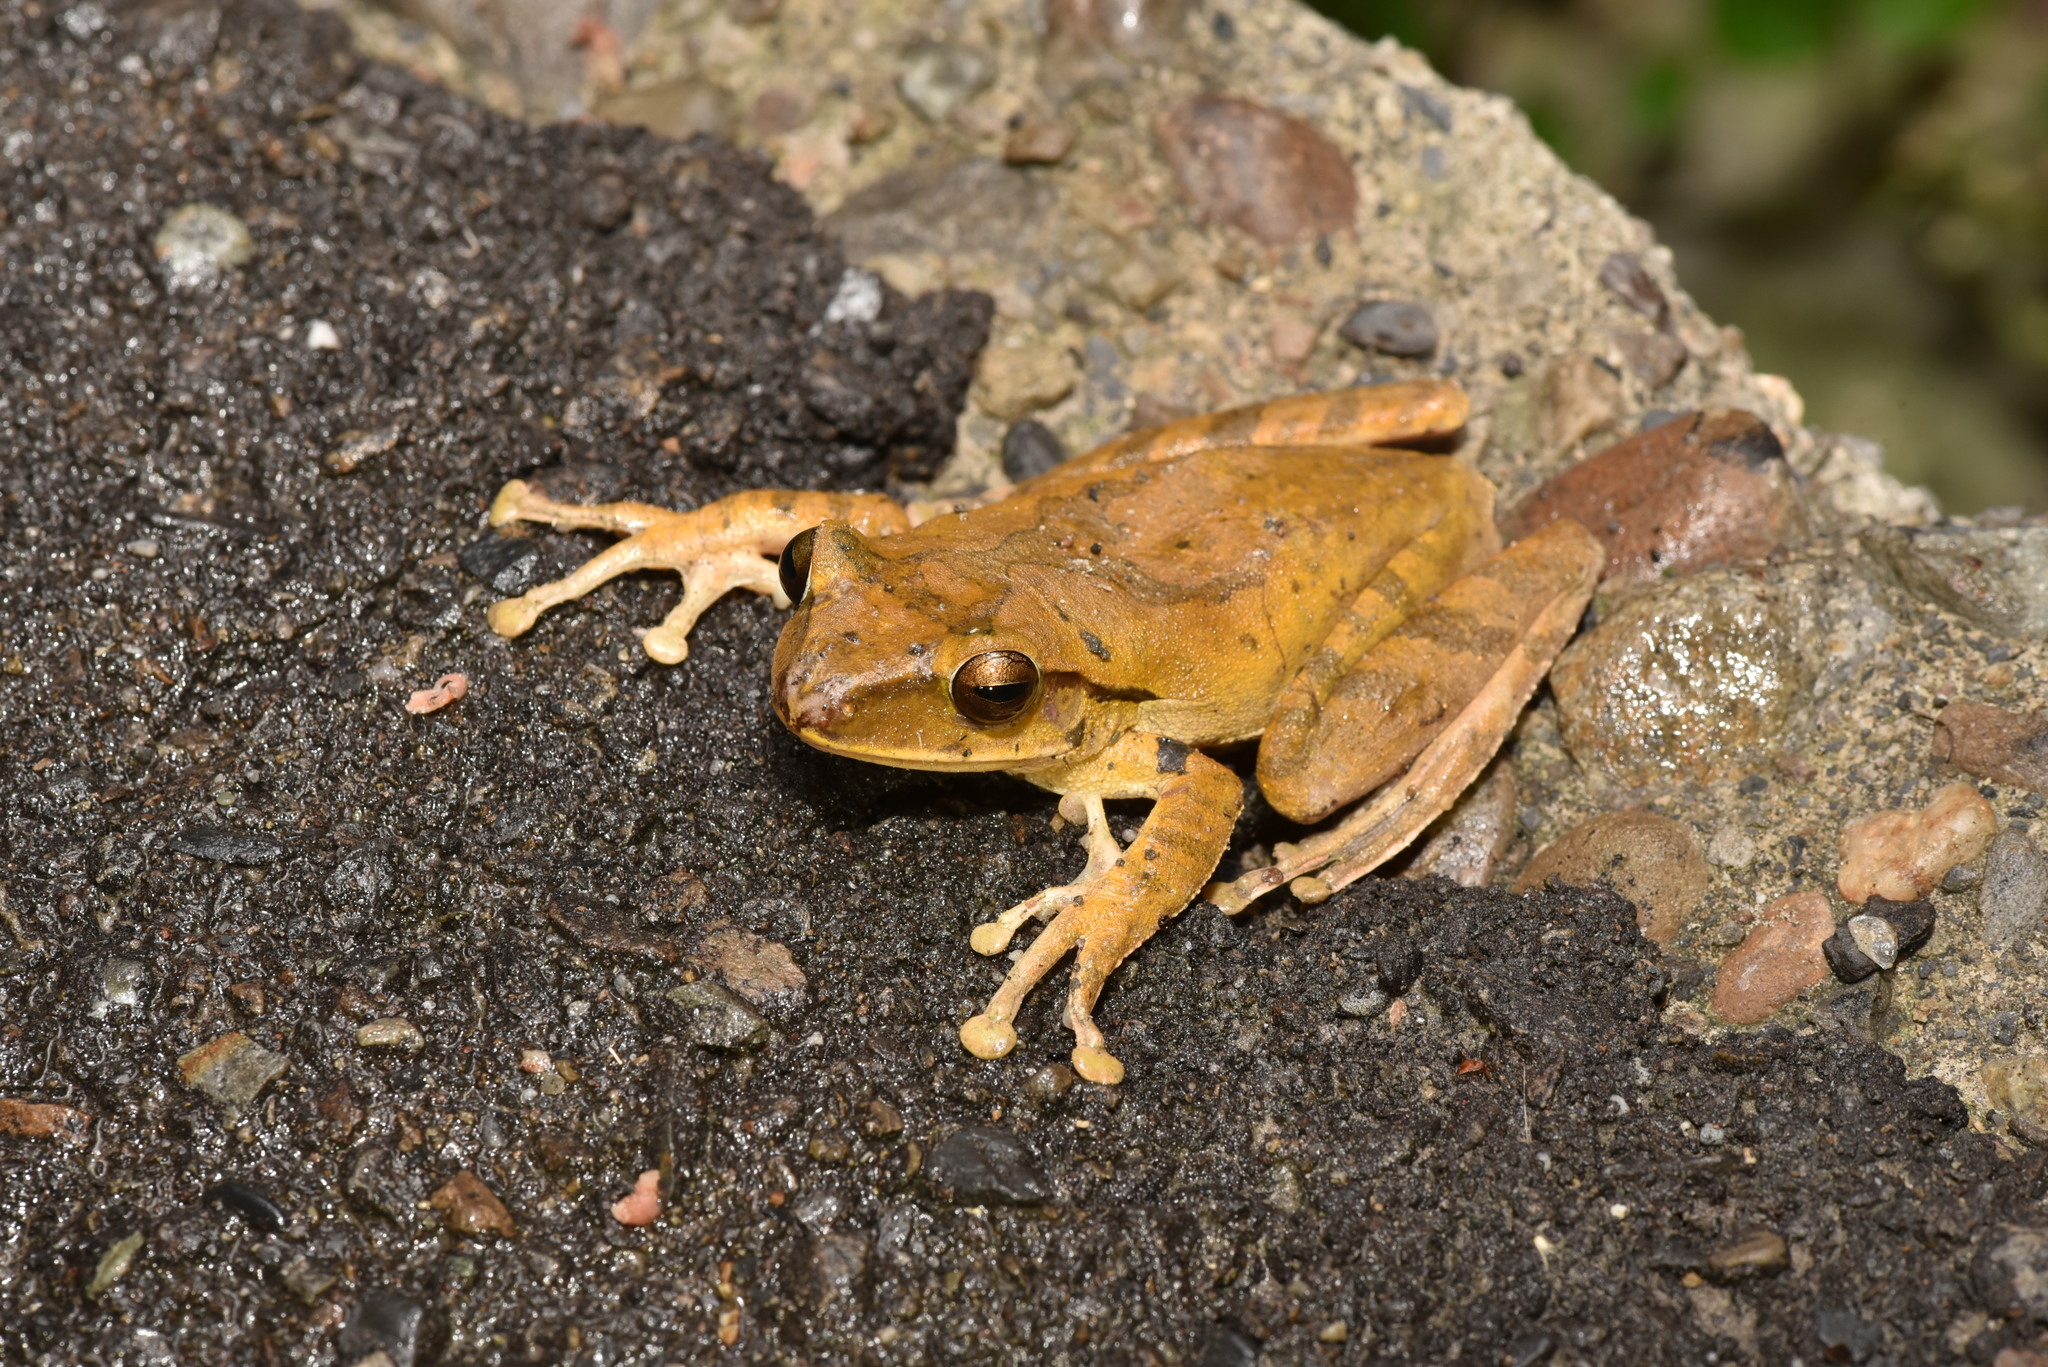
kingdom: Animalia
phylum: Chordata
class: Amphibia
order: Anura
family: Rhacophoridae
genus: Polypedates
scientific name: Polypedates megacephalus
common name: Hong kong whipping frog
